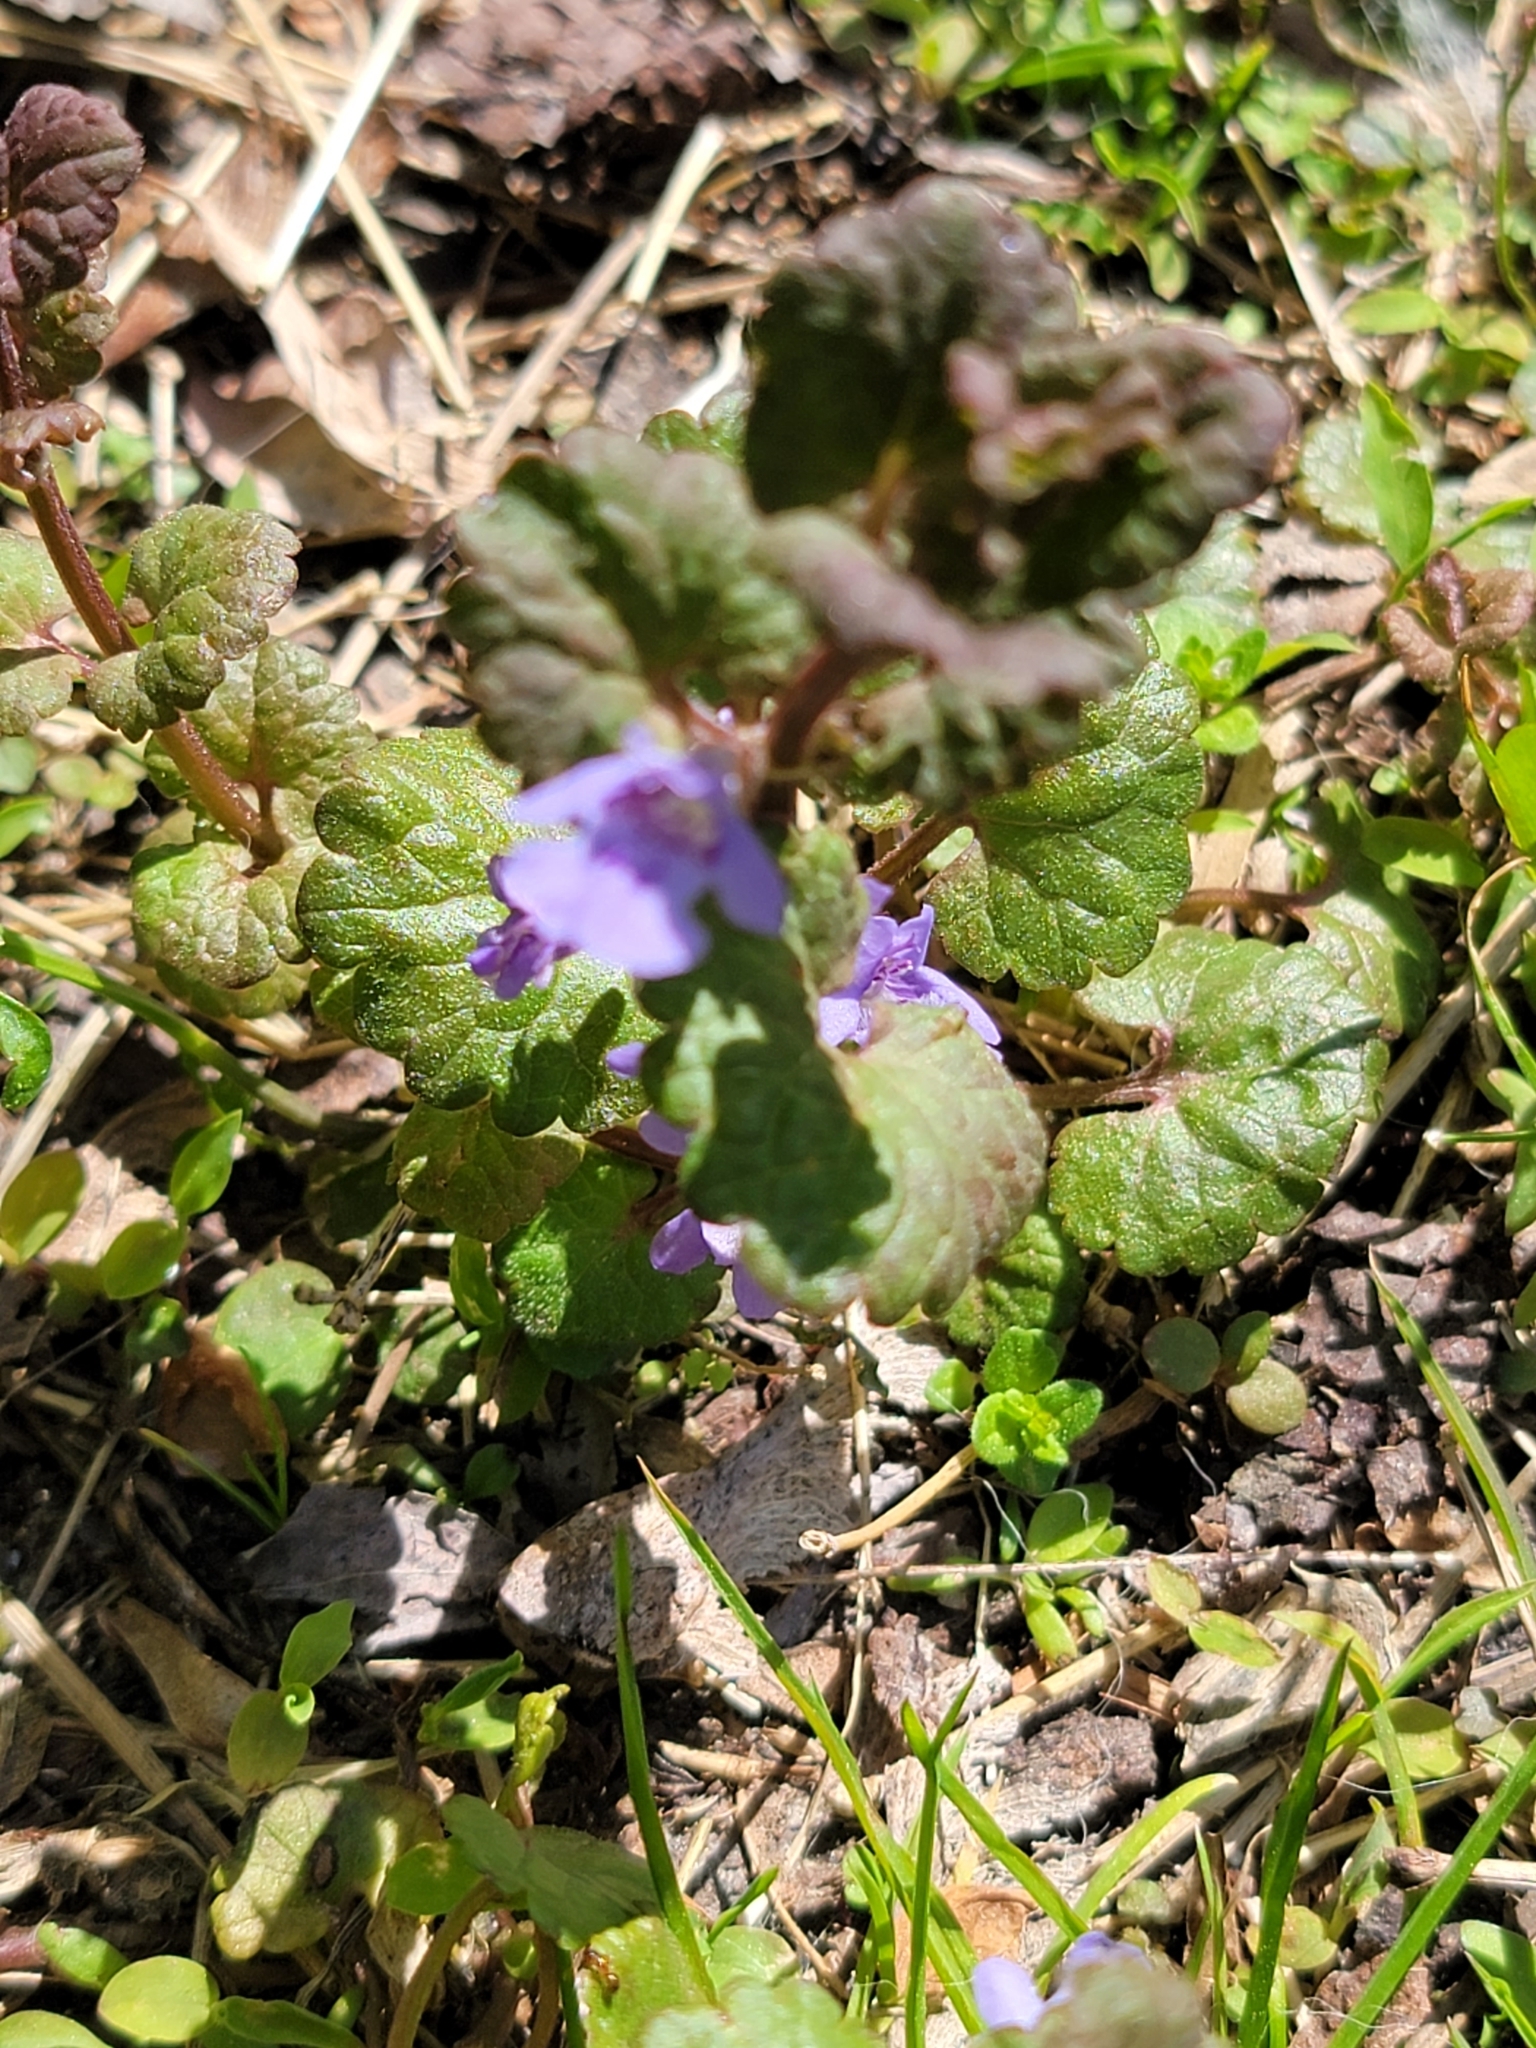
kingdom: Plantae
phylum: Tracheophyta
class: Magnoliopsida
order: Lamiales
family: Lamiaceae
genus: Glechoma
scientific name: Glechoma hederacea
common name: Ground ivy
